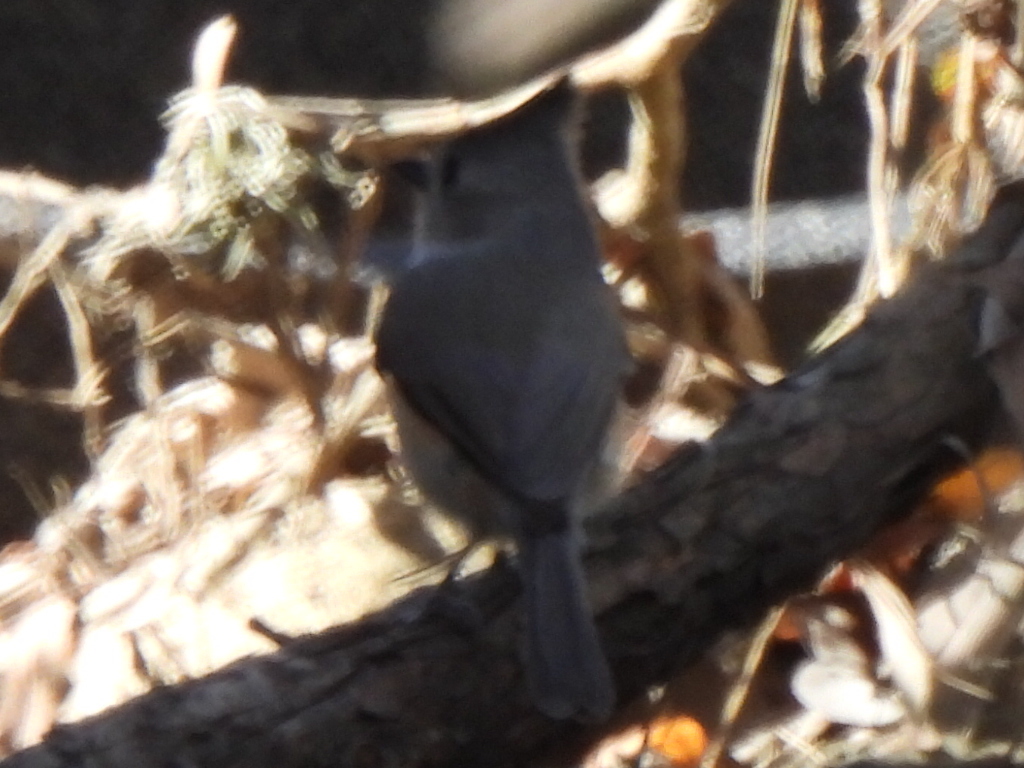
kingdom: Animalia
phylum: Chordata
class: Aves
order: Passeriformes
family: Paridae
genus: Baeolophus
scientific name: Baeolophus atricristatus
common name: Black-crested titmouse
